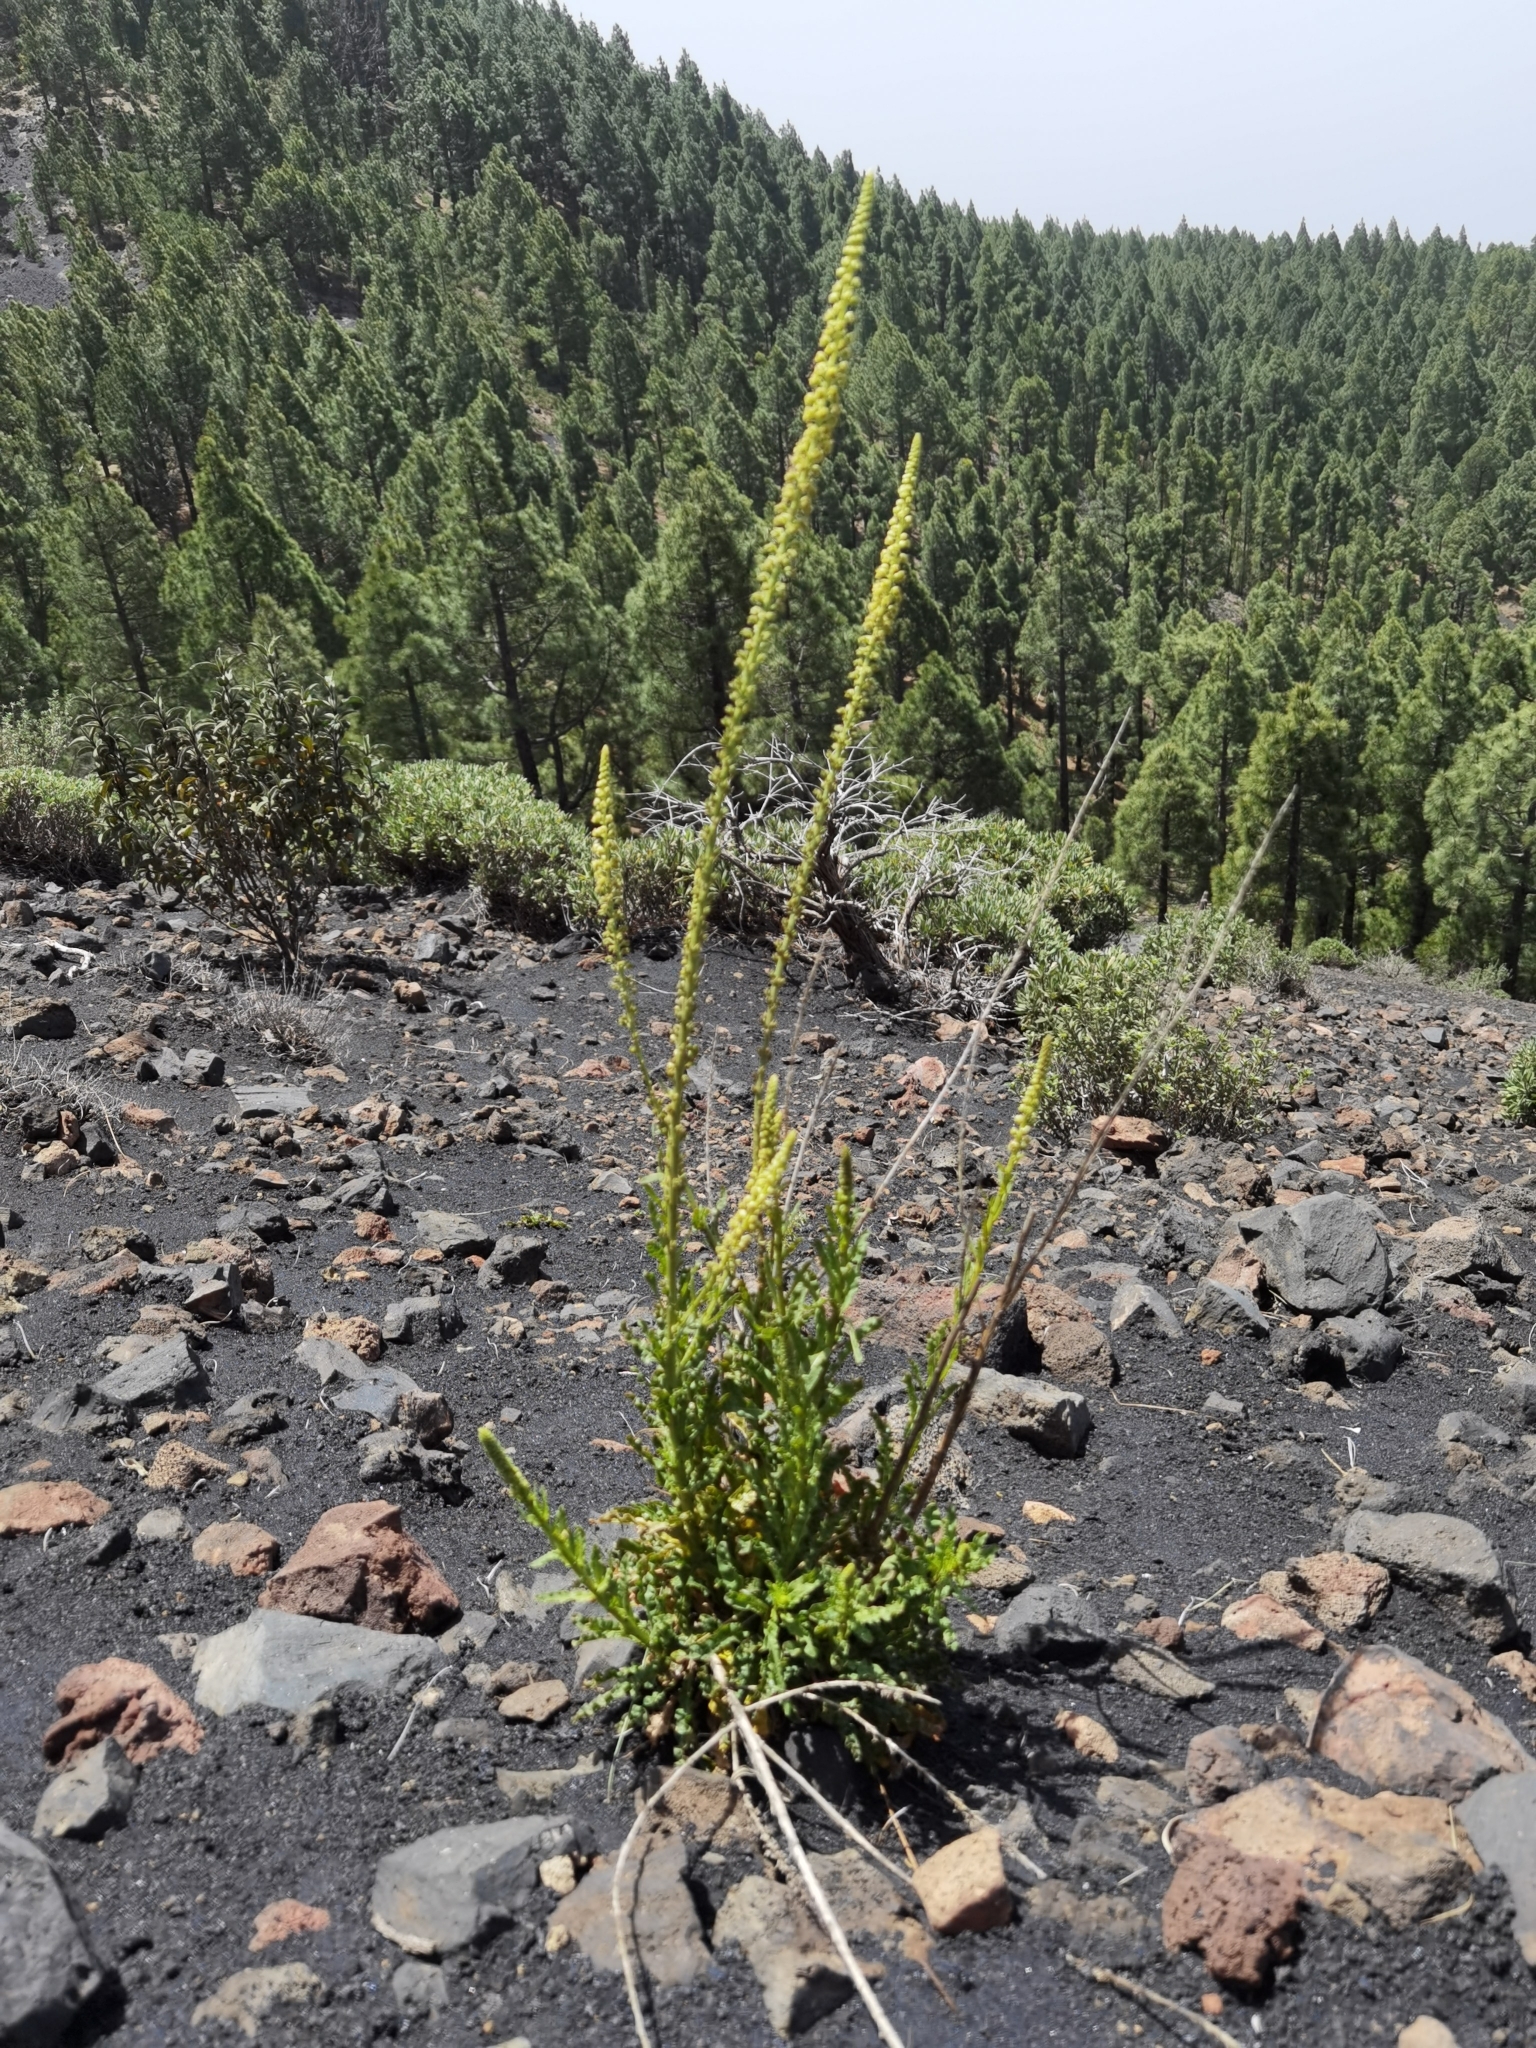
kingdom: Plantae
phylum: Tracheophyta
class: Magnoliopsida
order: Brassicales
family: Resedaceae
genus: Reseda
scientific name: Reseda luteola
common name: Weld
